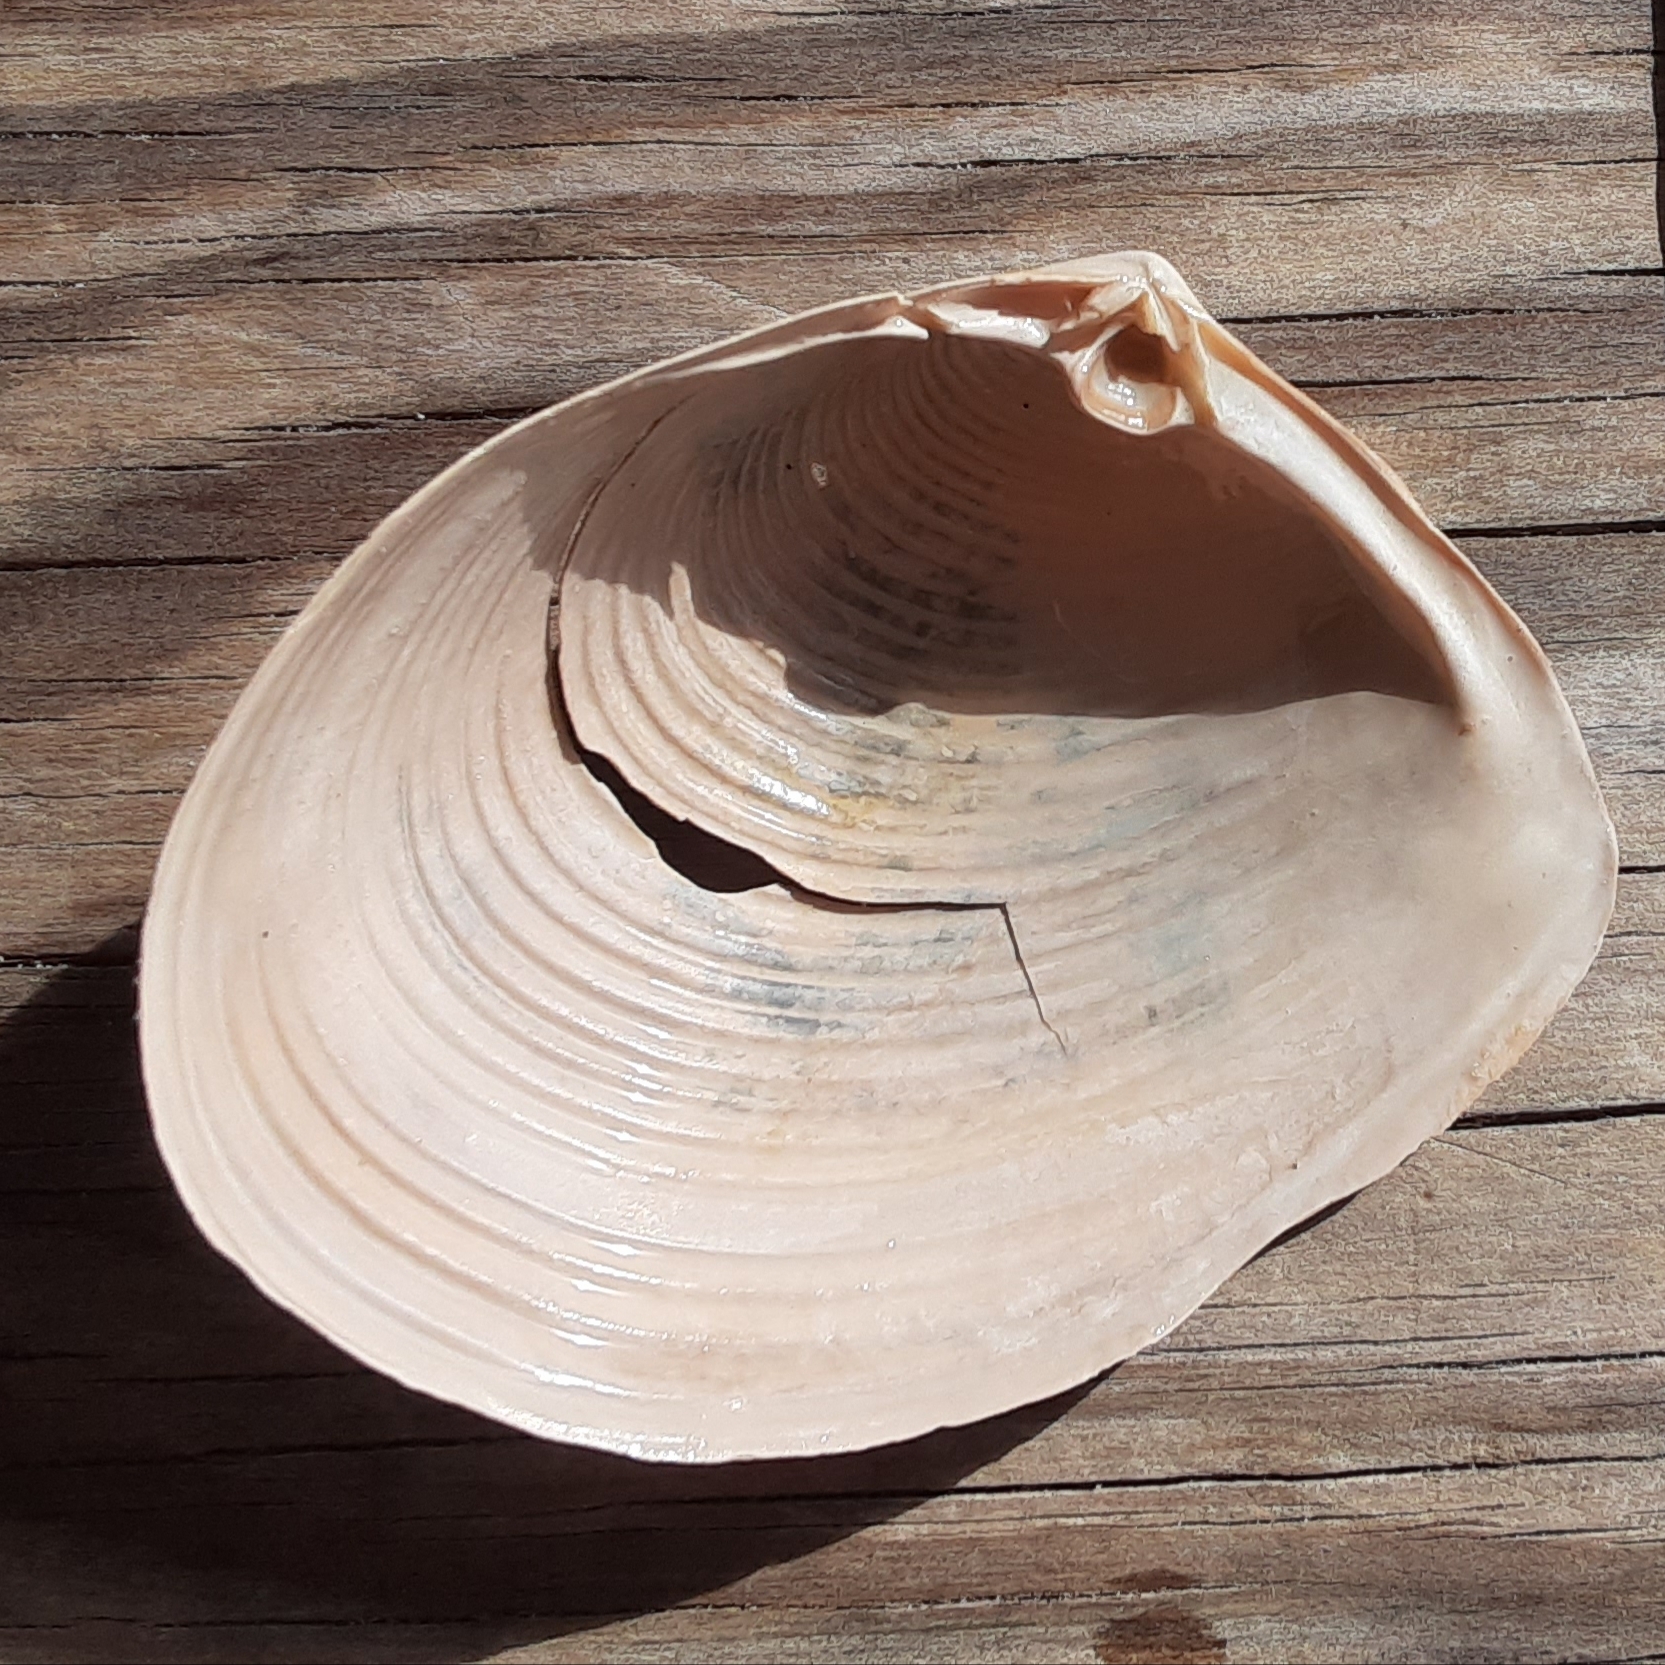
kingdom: Animalia
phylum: Mollusca
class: Bivalvia
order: Venerida
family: Anatinellidae
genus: Raeta
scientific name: Raeta plicatella
